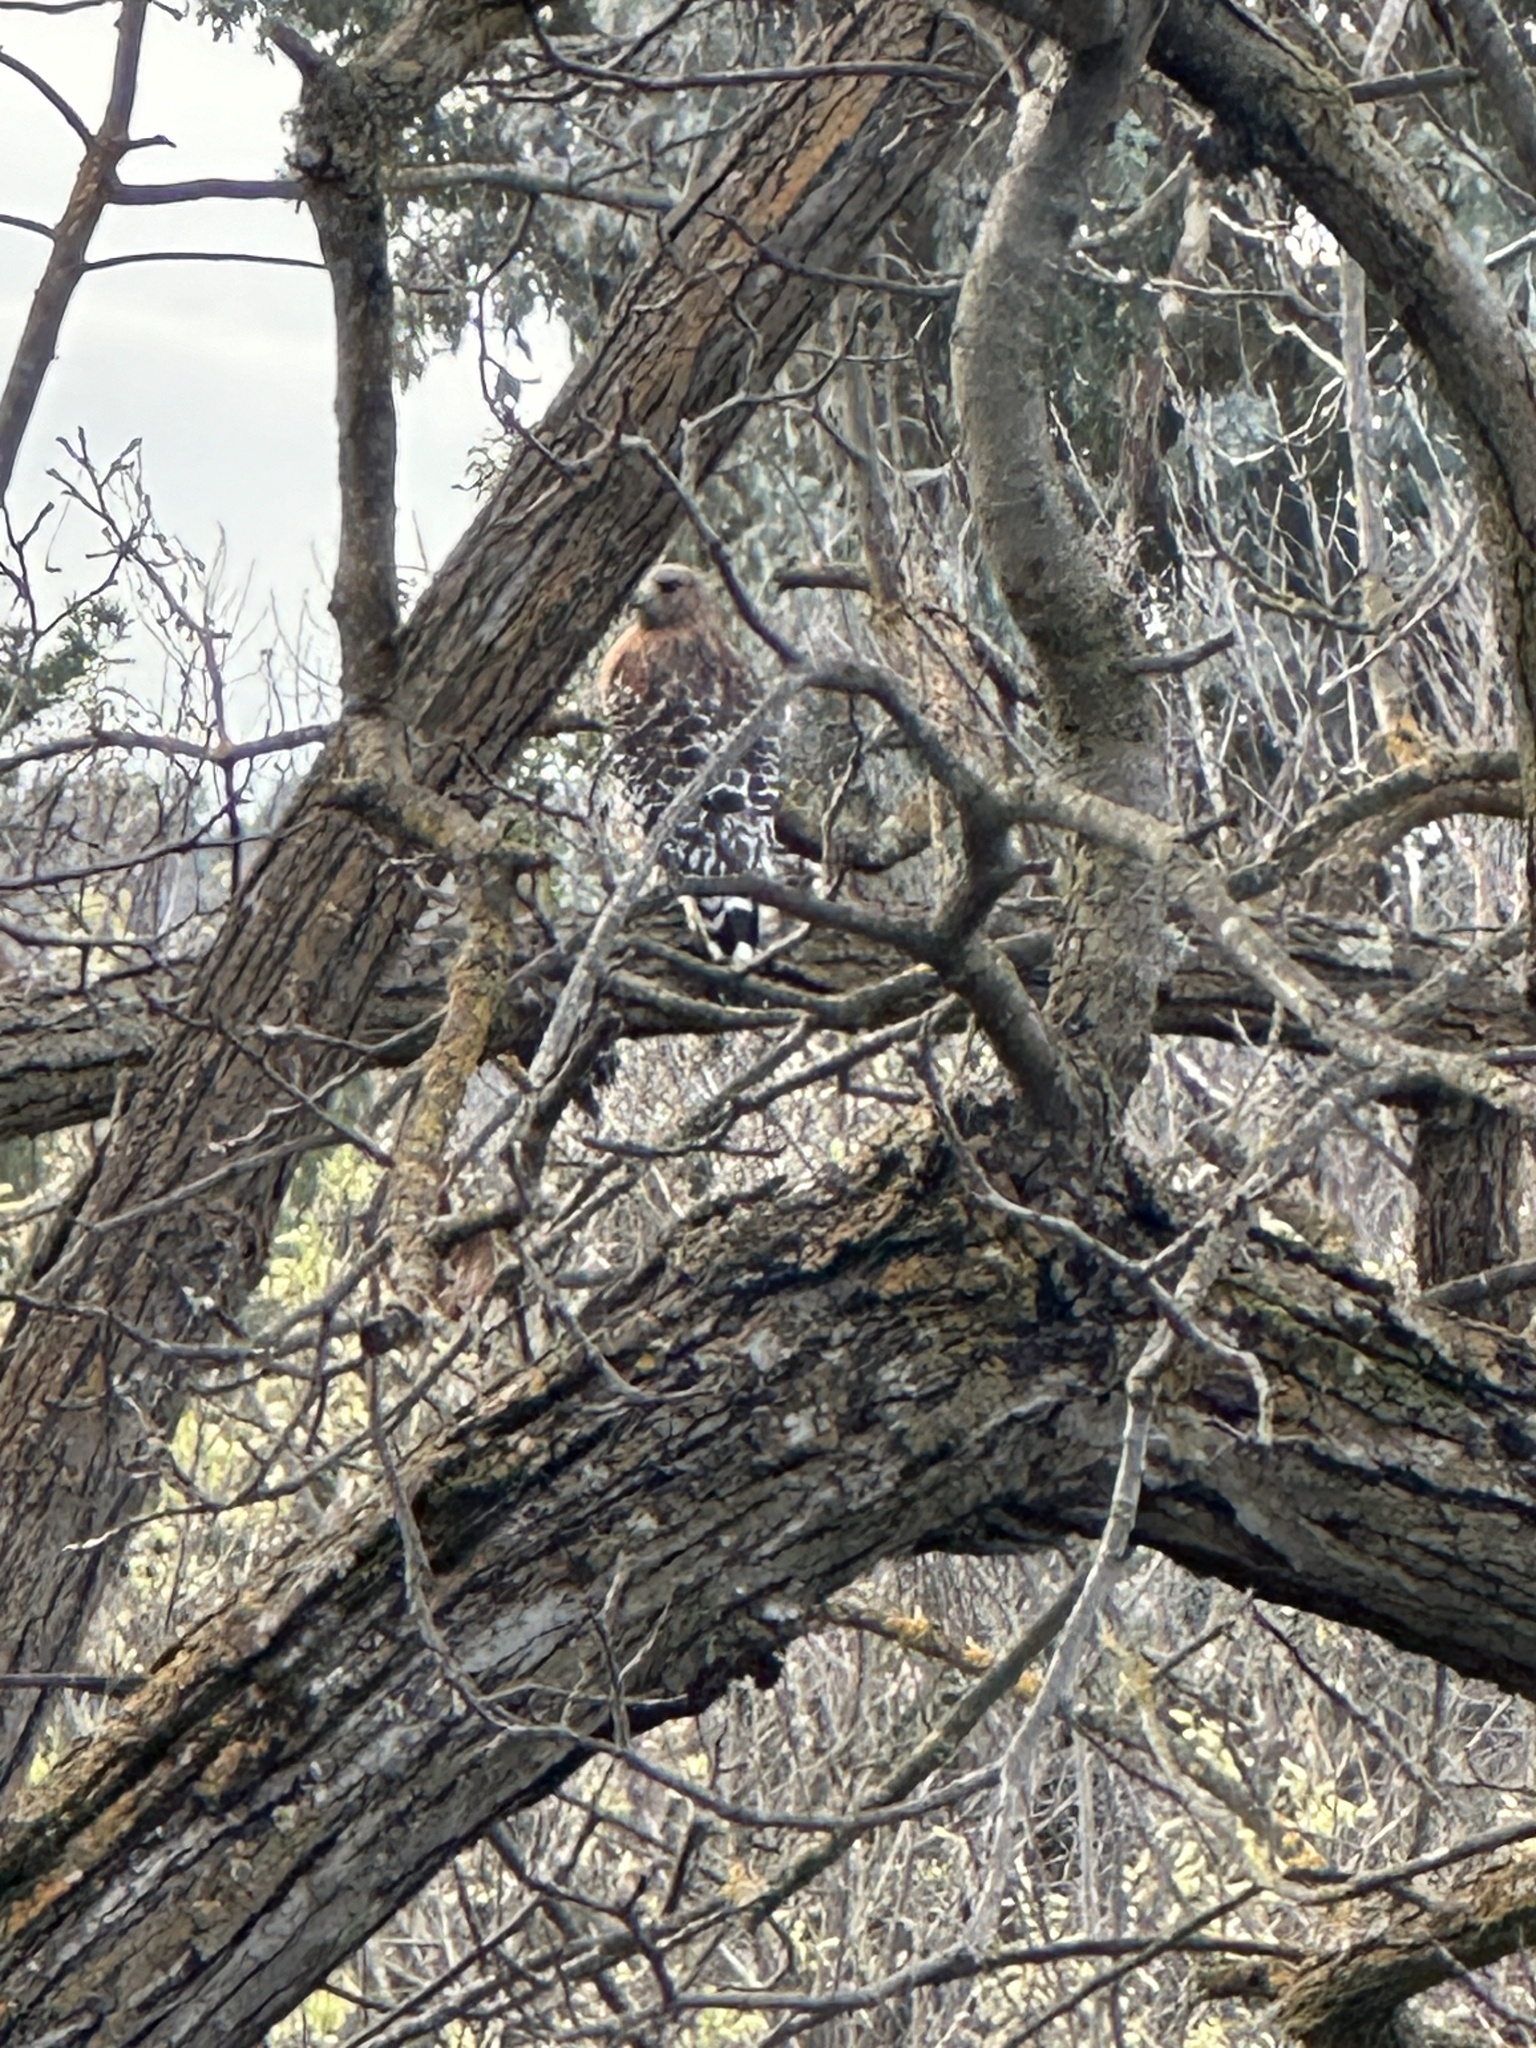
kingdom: Animalia
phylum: Chordata
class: Aves
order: Accipitriformes
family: Accipitridae
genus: Buteo
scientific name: Buteo lineatus
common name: Red-shouldered hawk
